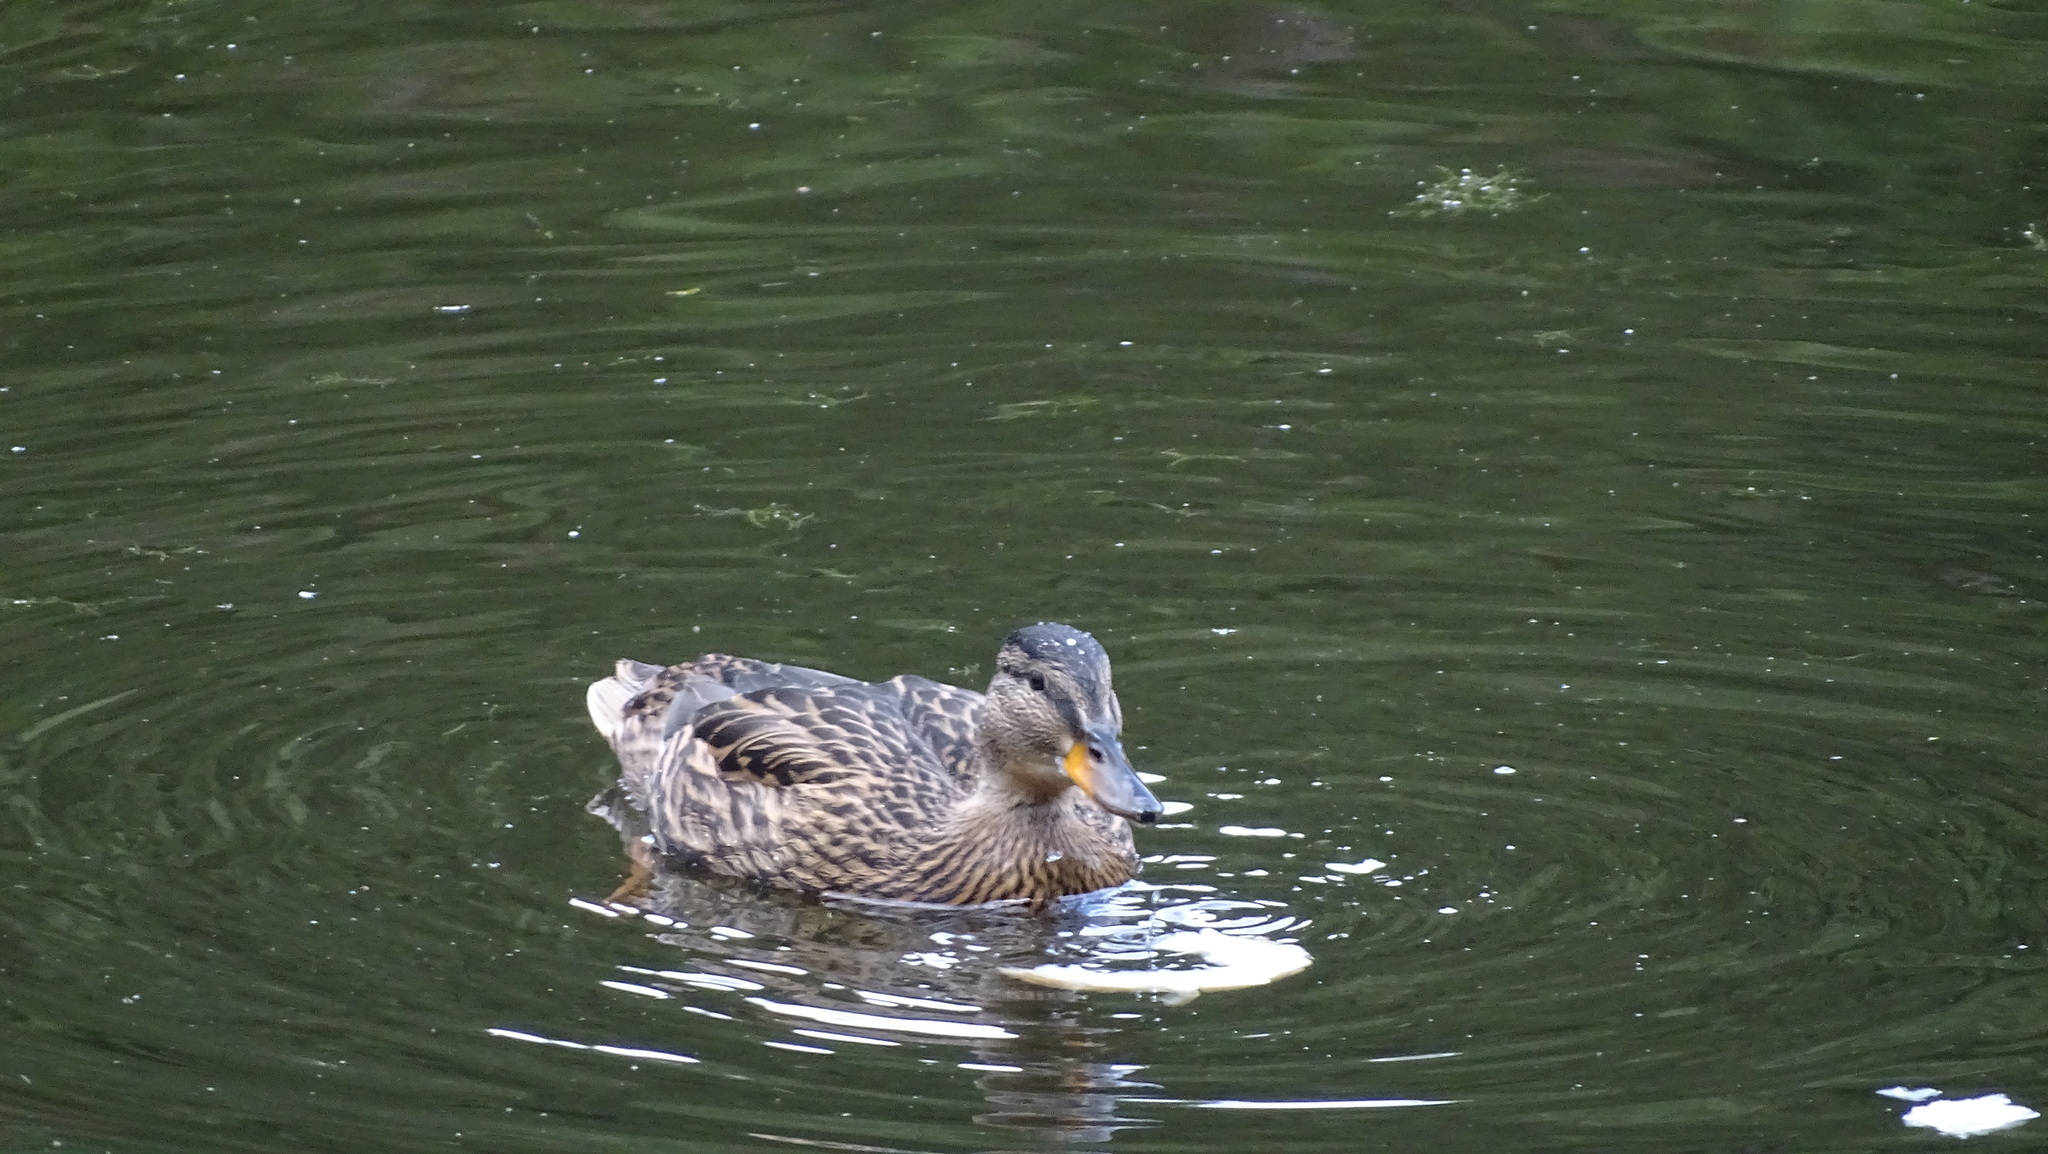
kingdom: Animalia
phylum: Chordata
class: Aves
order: Anseriformes
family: Anatidae
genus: Anas
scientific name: Anas platyrhynchos
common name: Mallard
